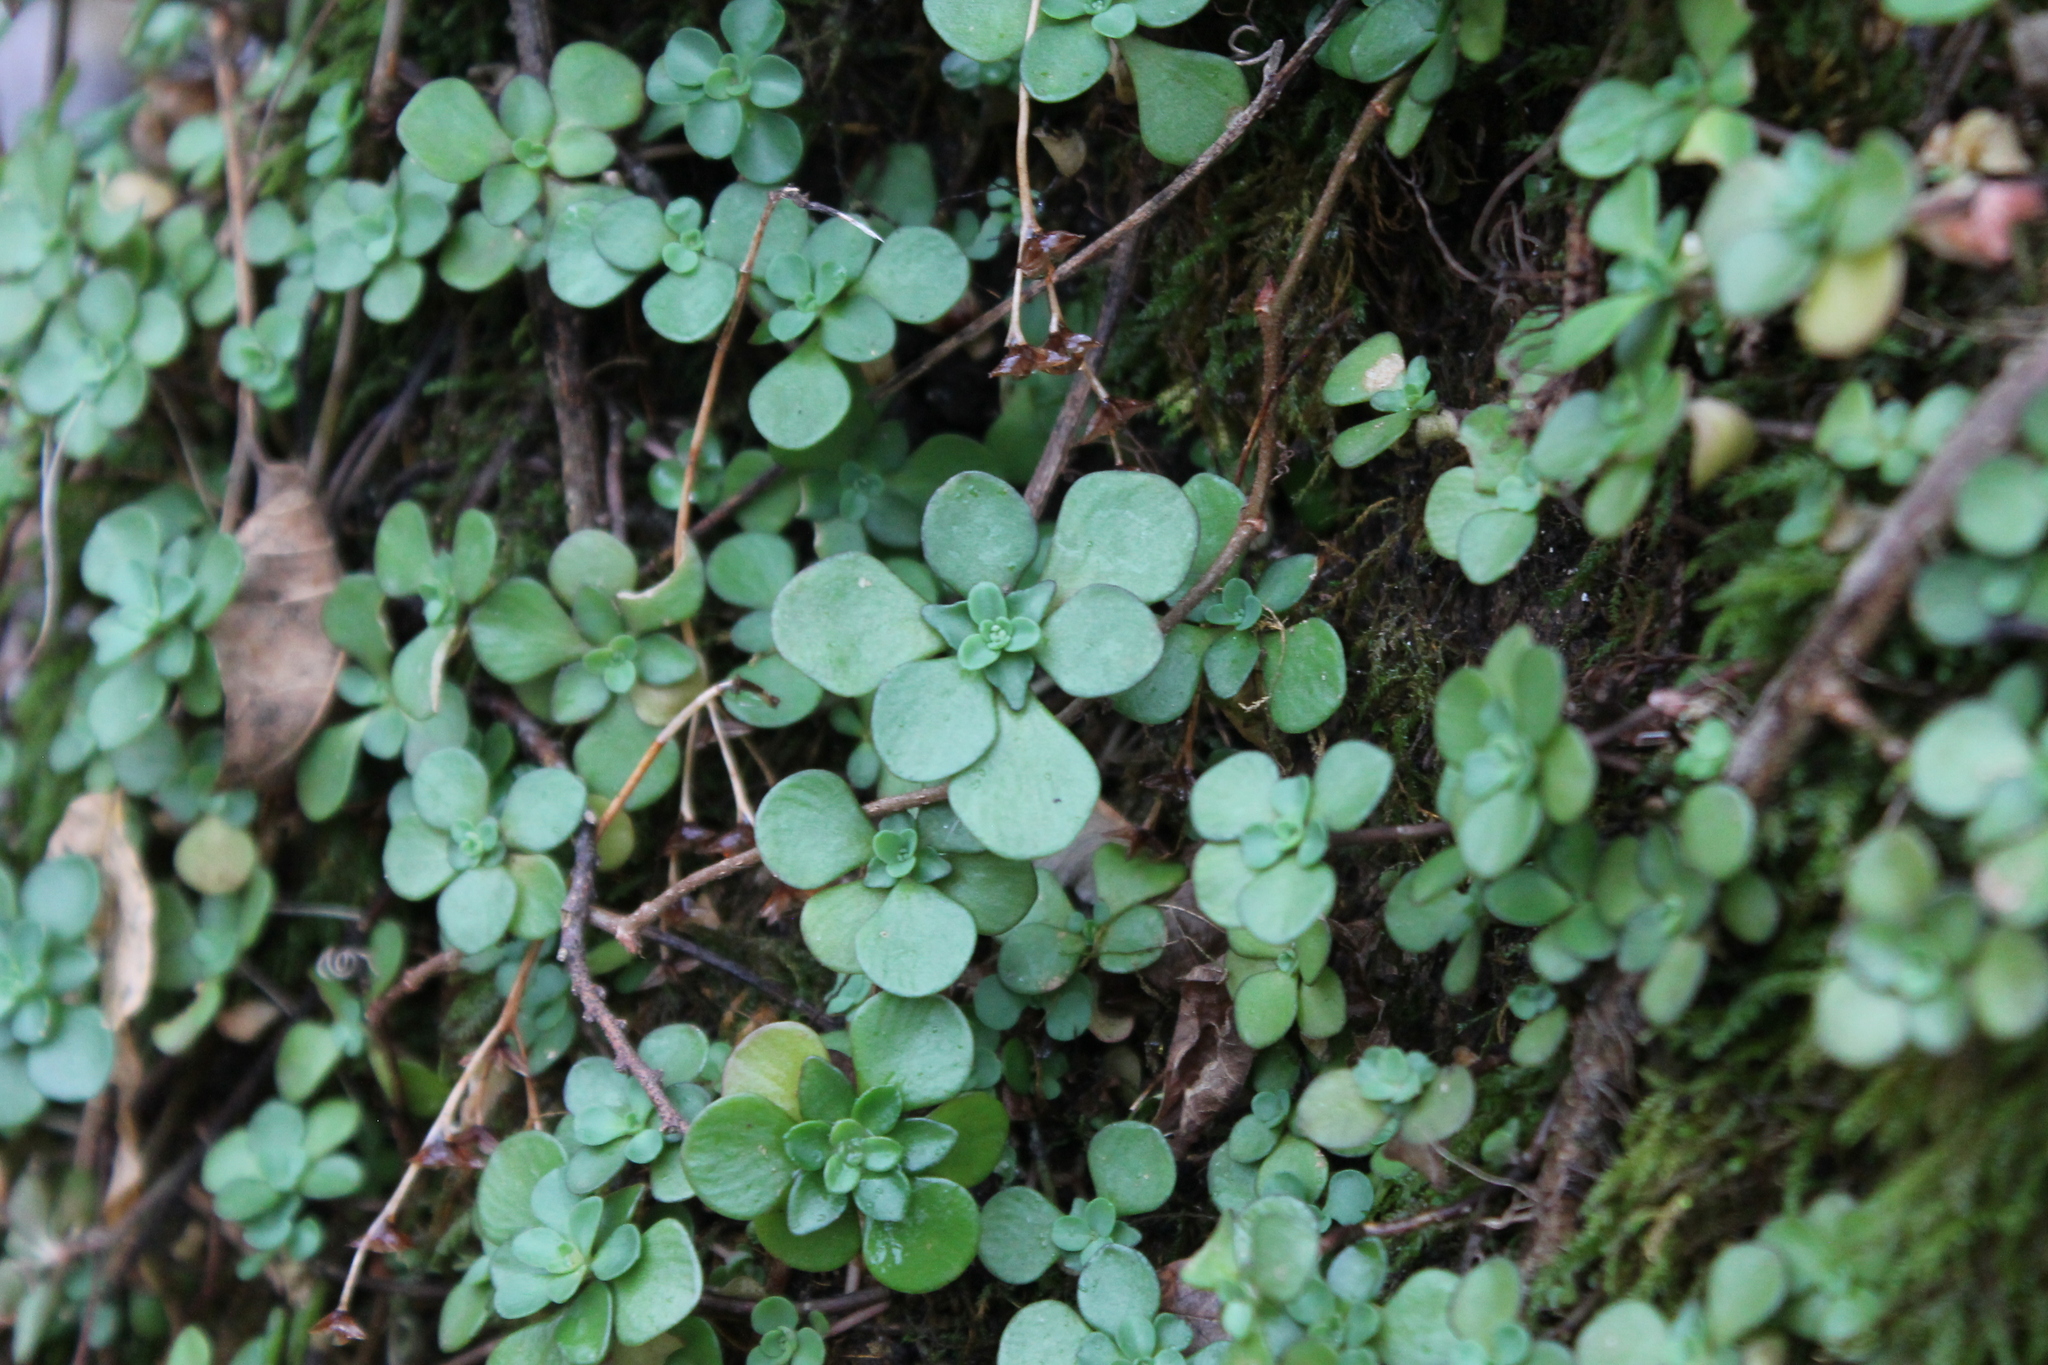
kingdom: Plantae
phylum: Tracheophyta
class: Magnoliopsida
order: Saxifragales
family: Crassulaceae
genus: Sedum
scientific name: Sedum ternatum
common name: Wild stonecrop
